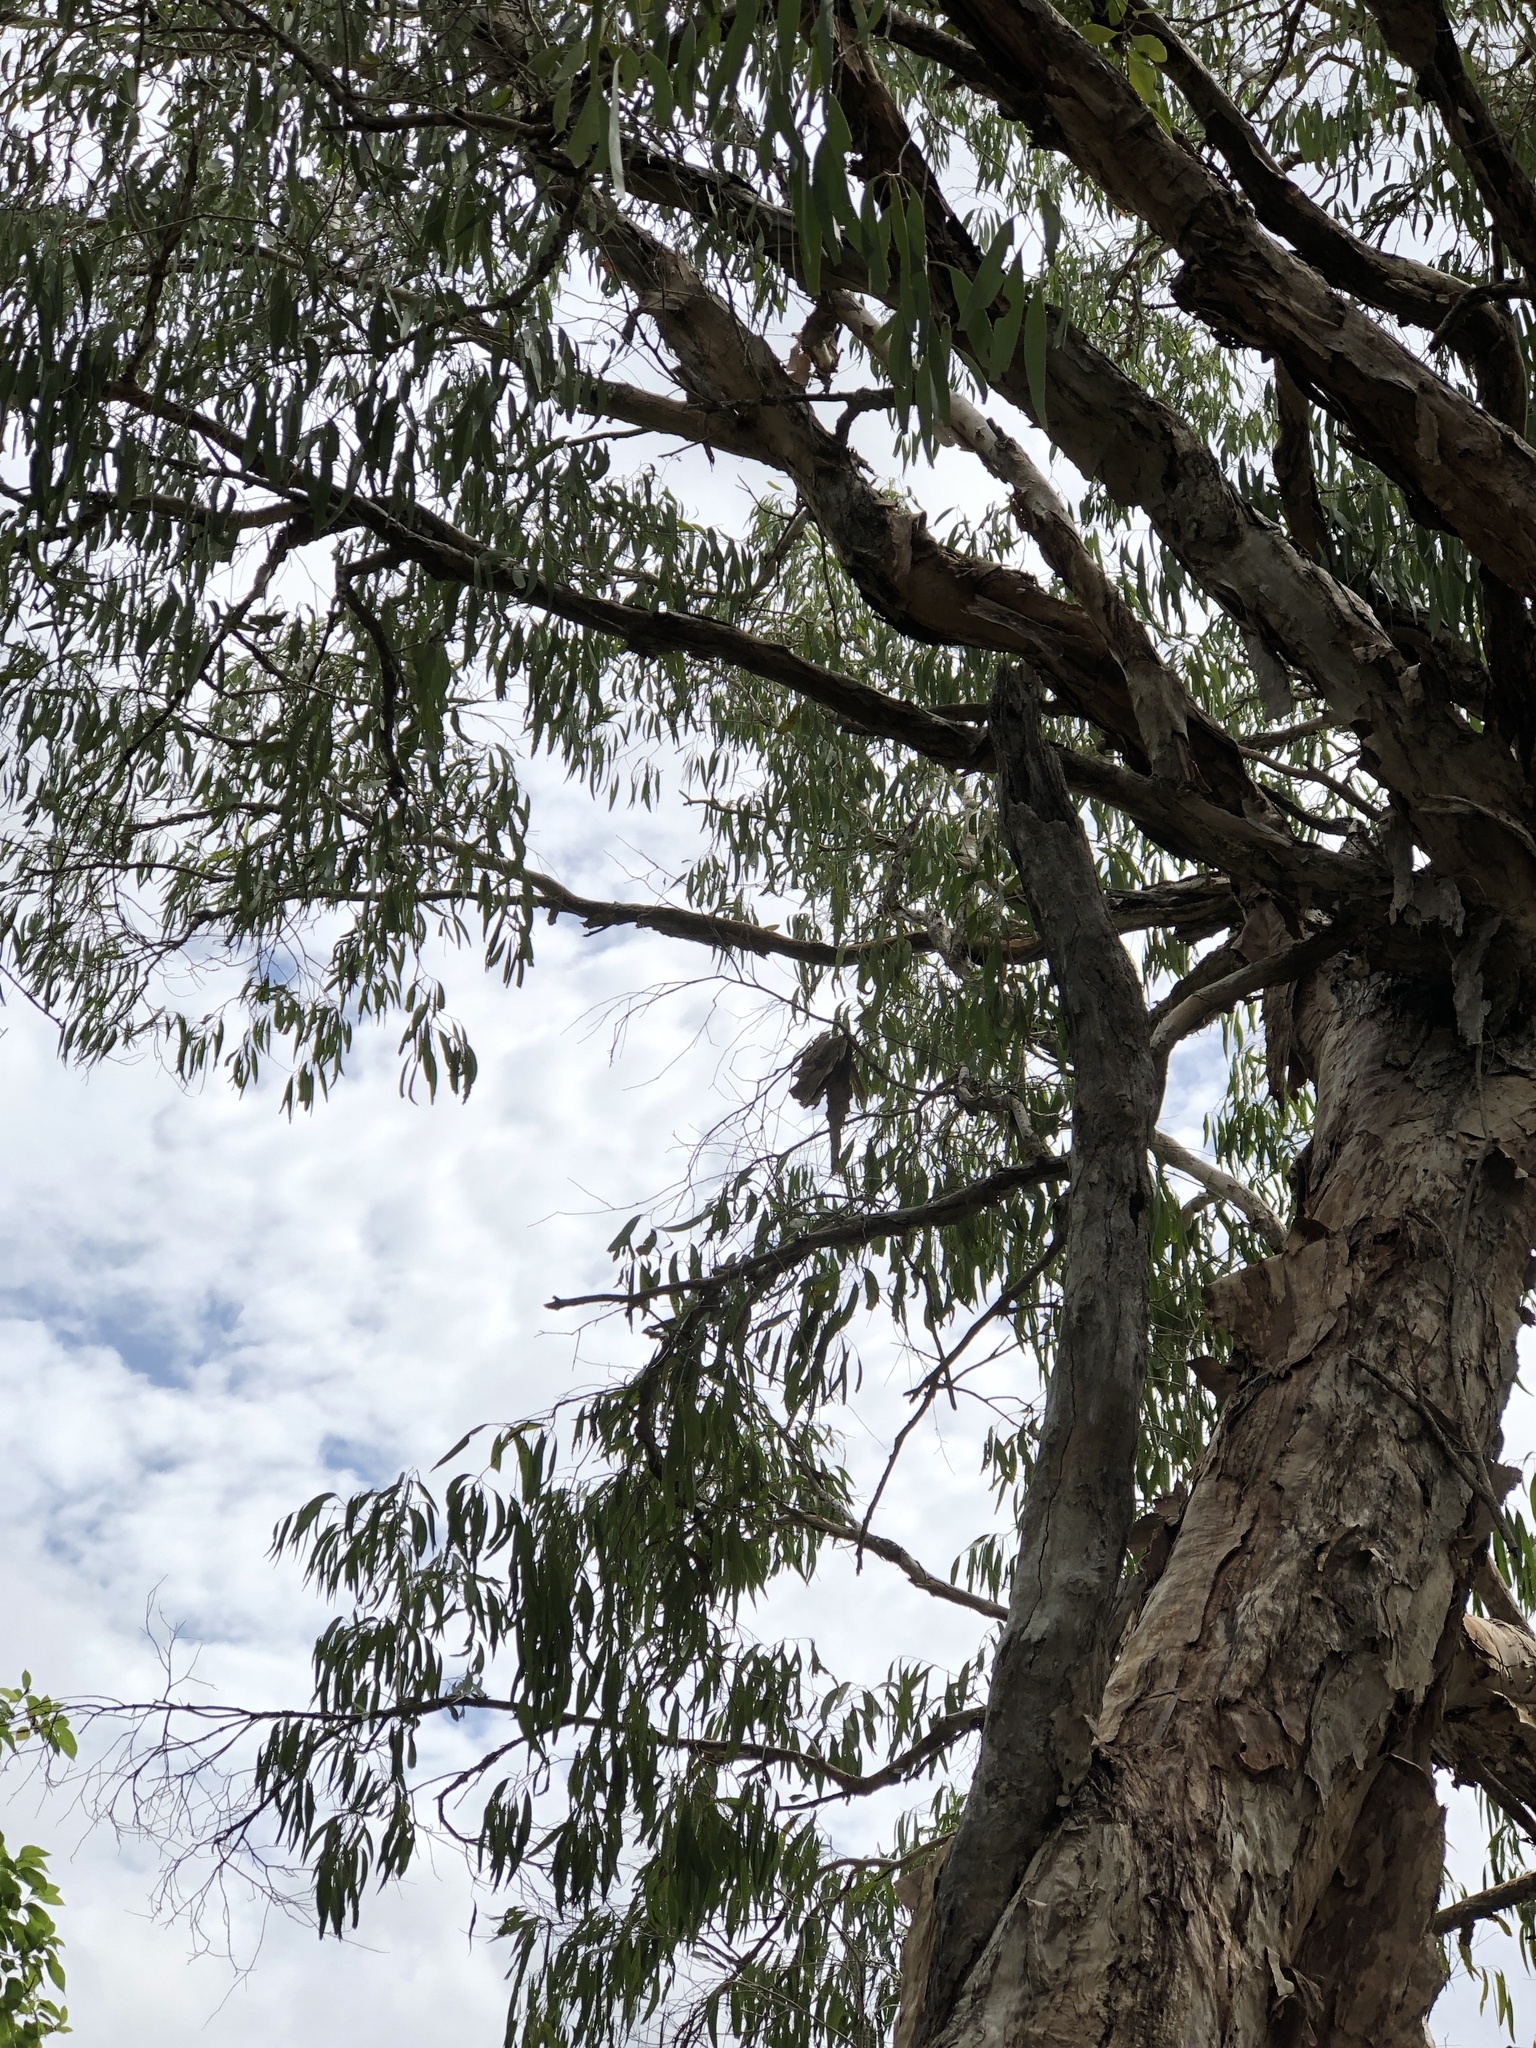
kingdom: Plantae
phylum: Tracheophyta
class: Magnoliopsida
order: Myrtales
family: Myrtaceae
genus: Melaleuca
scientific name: Melaleuca leucadendra
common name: Weeping paperbark
